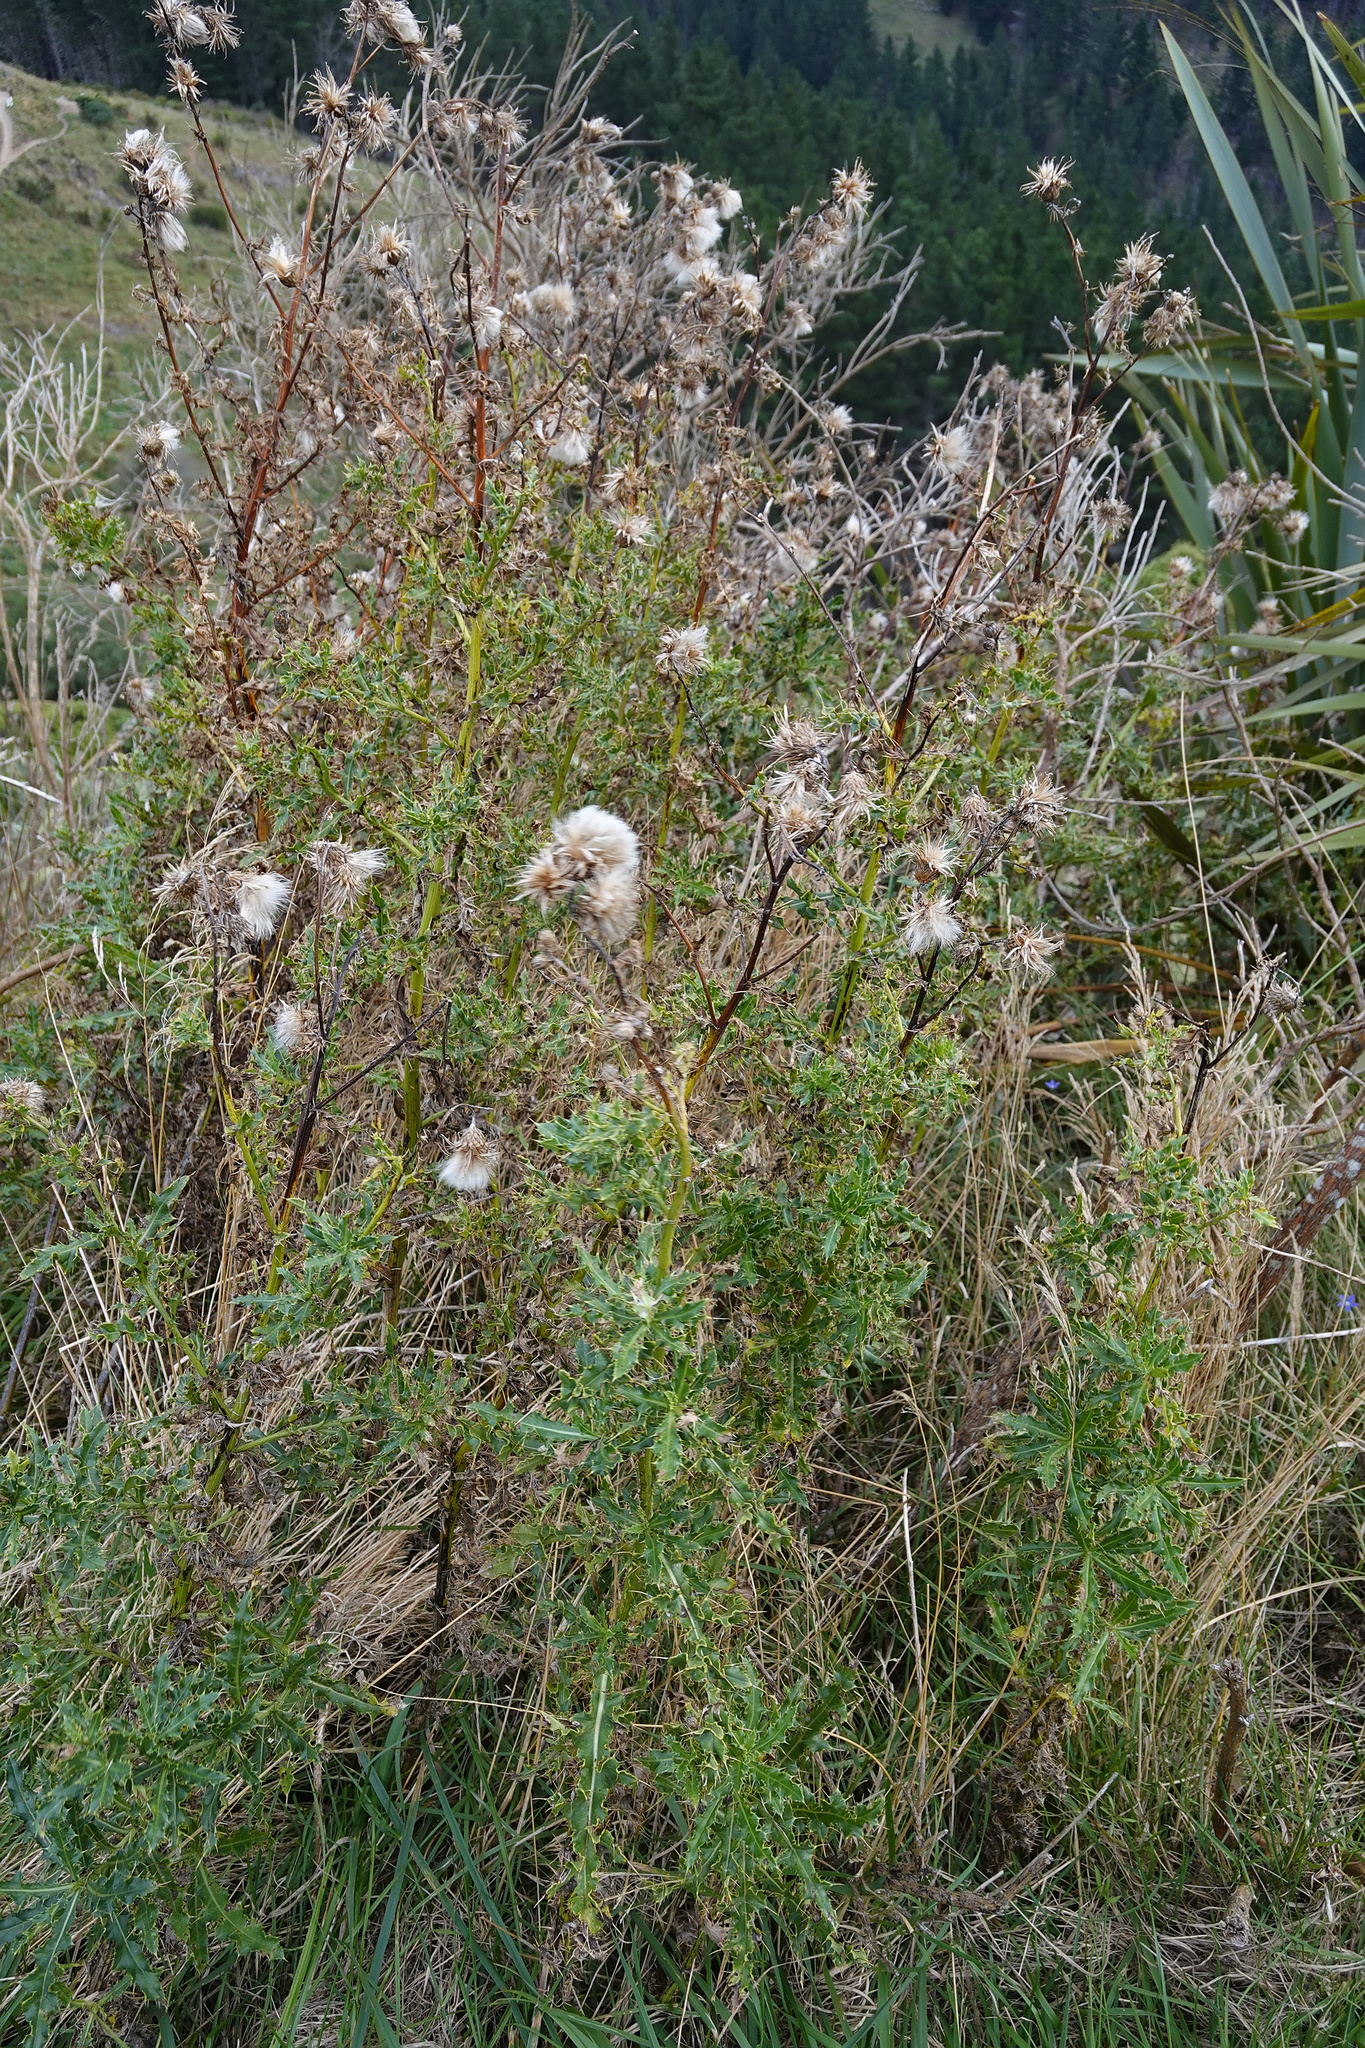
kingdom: Plantae
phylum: Tracheophyta
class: Magnoliopsida
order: Asterales
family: Asteraceae
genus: Cirsium
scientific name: Cirsium arvense
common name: Creeping thistle
